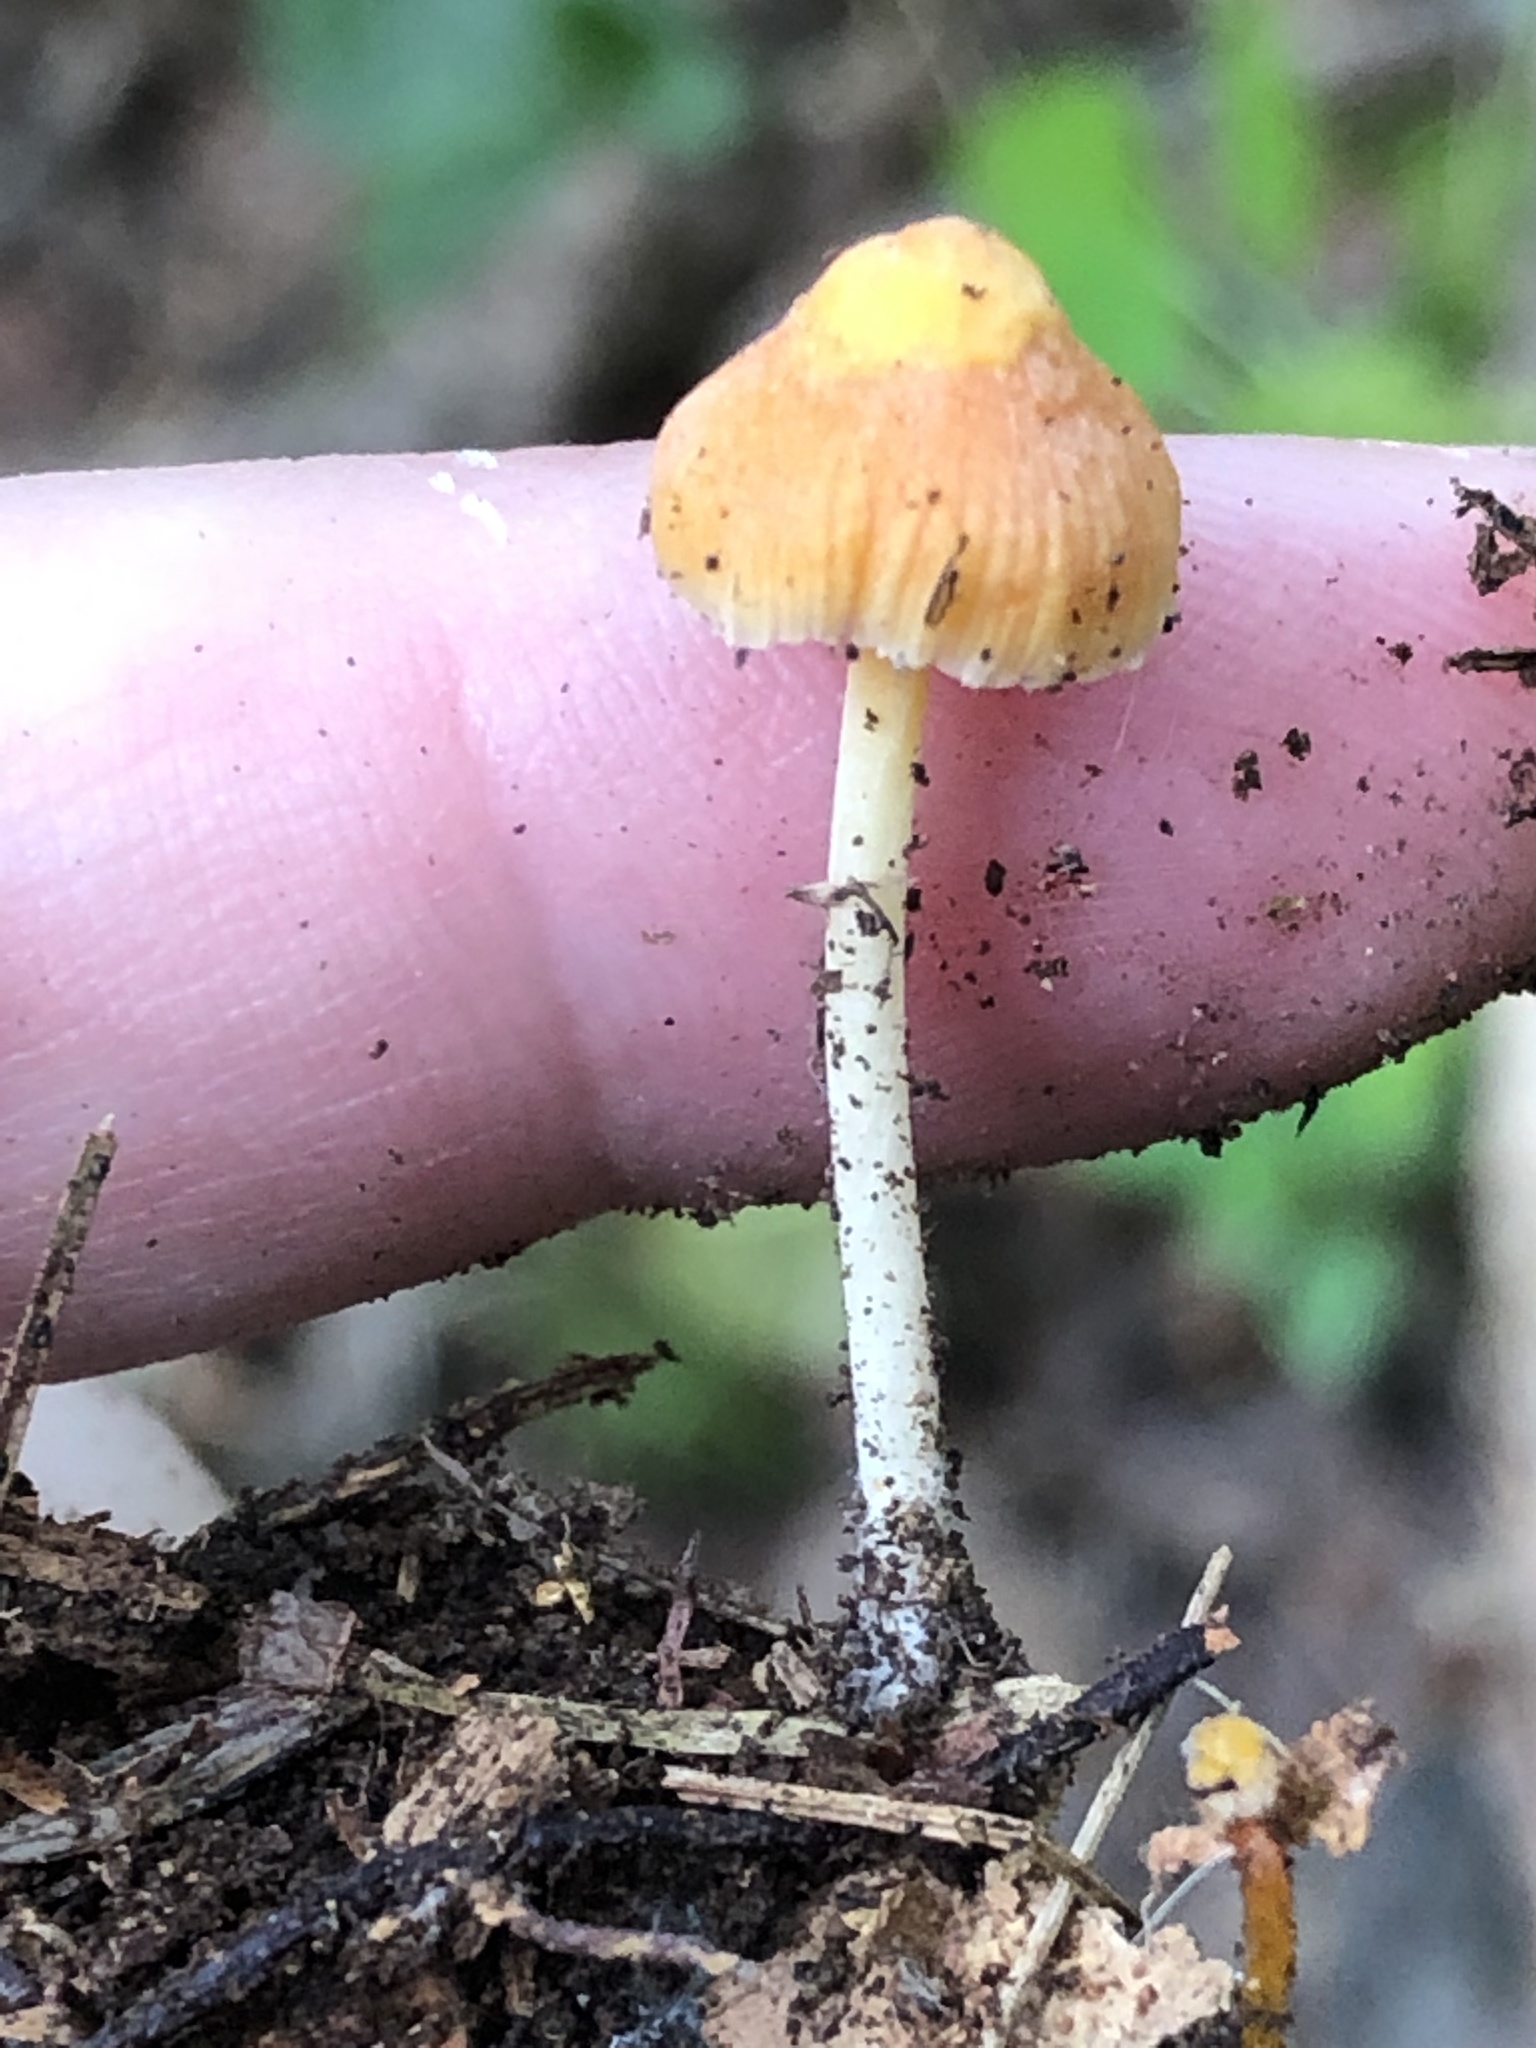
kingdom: Fungi
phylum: Basidiomycota
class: Agaricomycetes
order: Agaricales
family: Mycenaceae
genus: Mycena
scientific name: Mycena crocea
